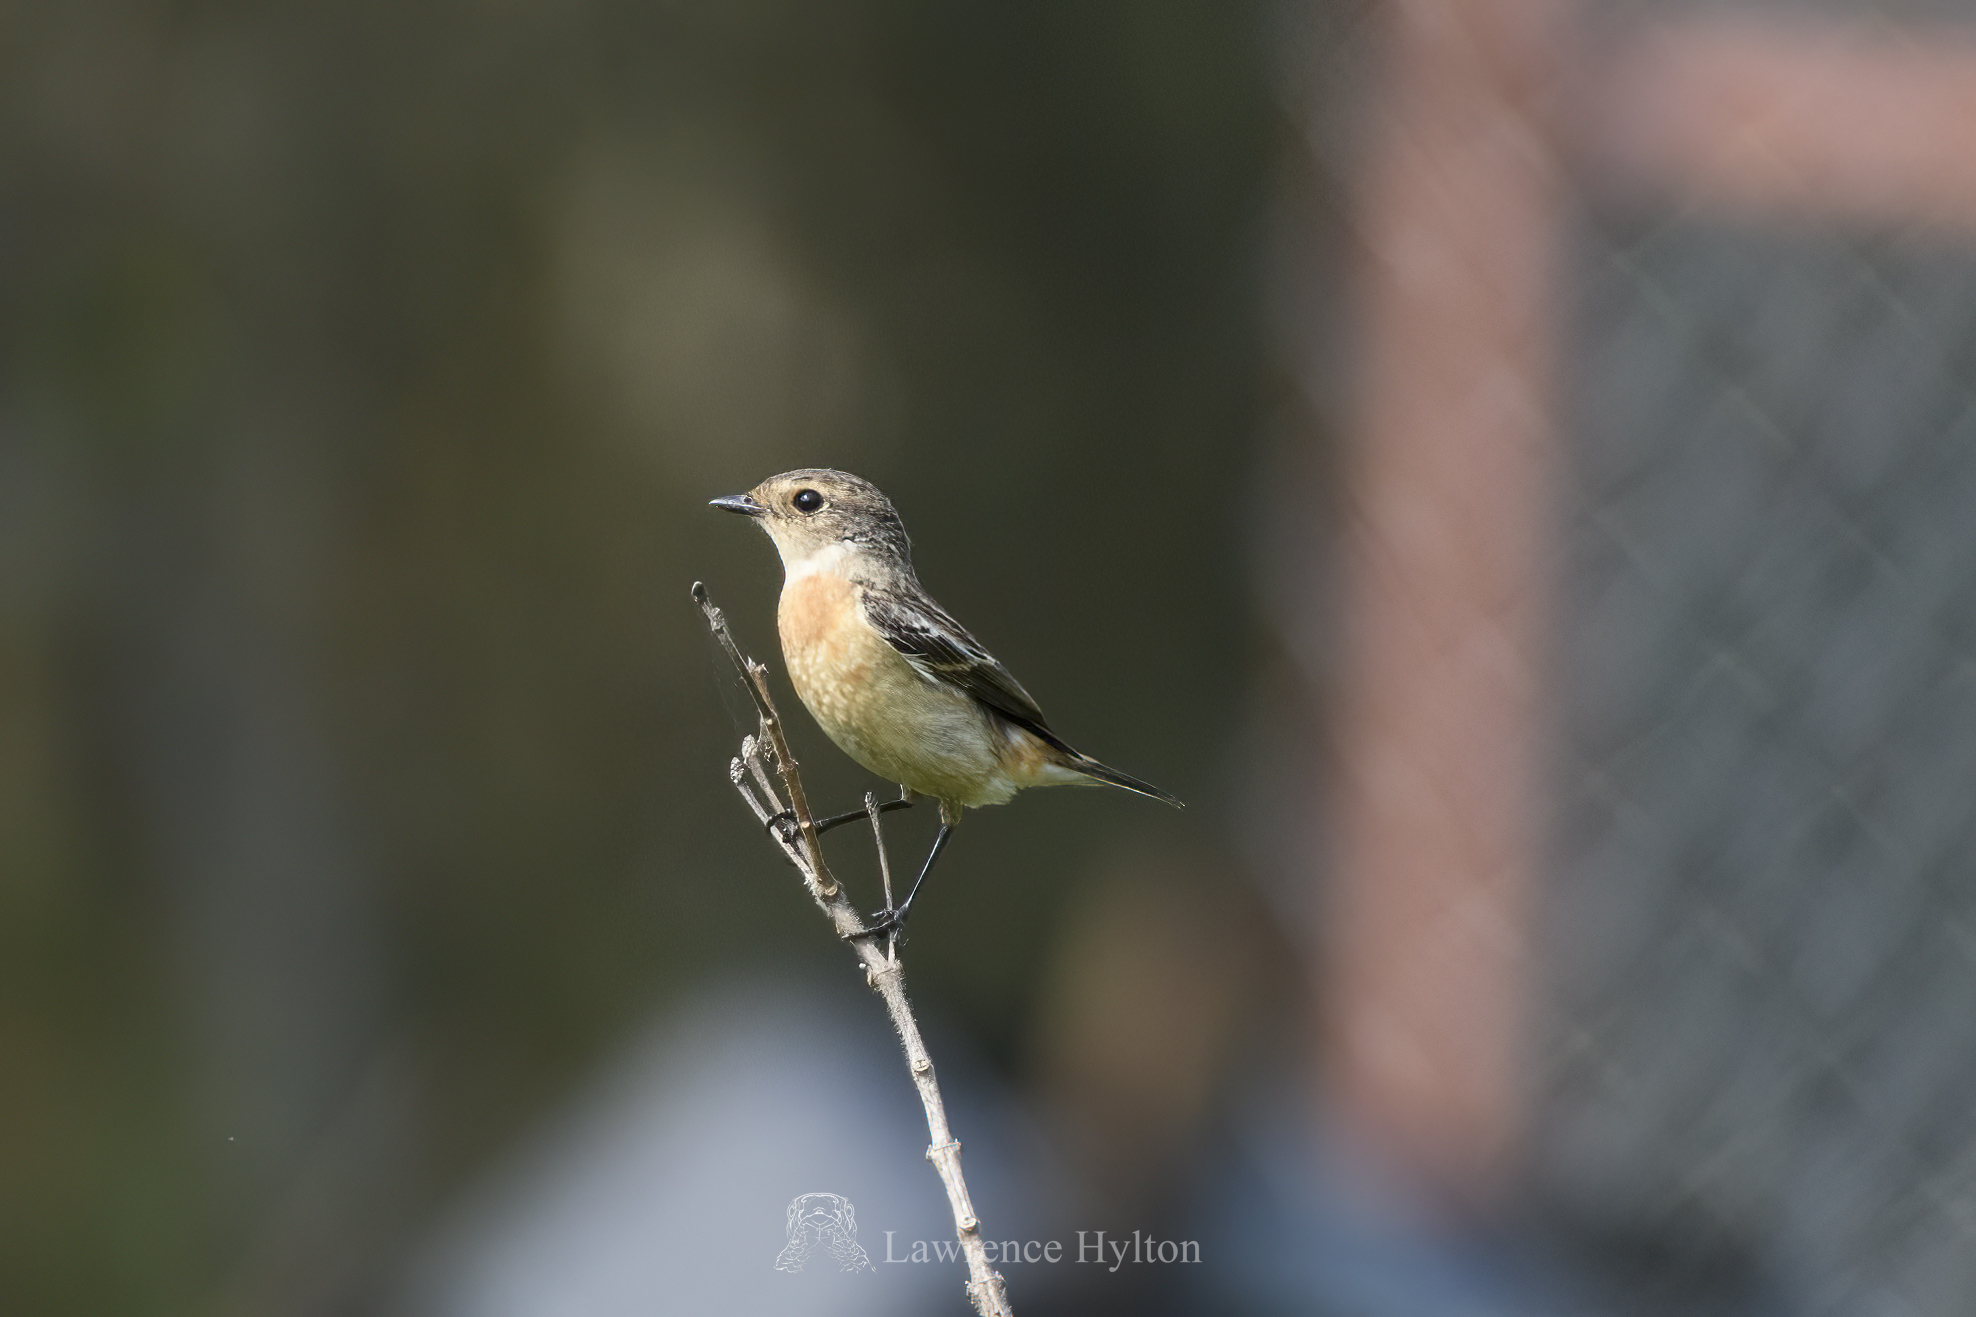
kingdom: Animalia
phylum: Chordata
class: Aves
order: Passeriformes
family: Muscicapidae
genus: Saxicola
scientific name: Saxicola stejnegeri
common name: Stejneger's stonechat
